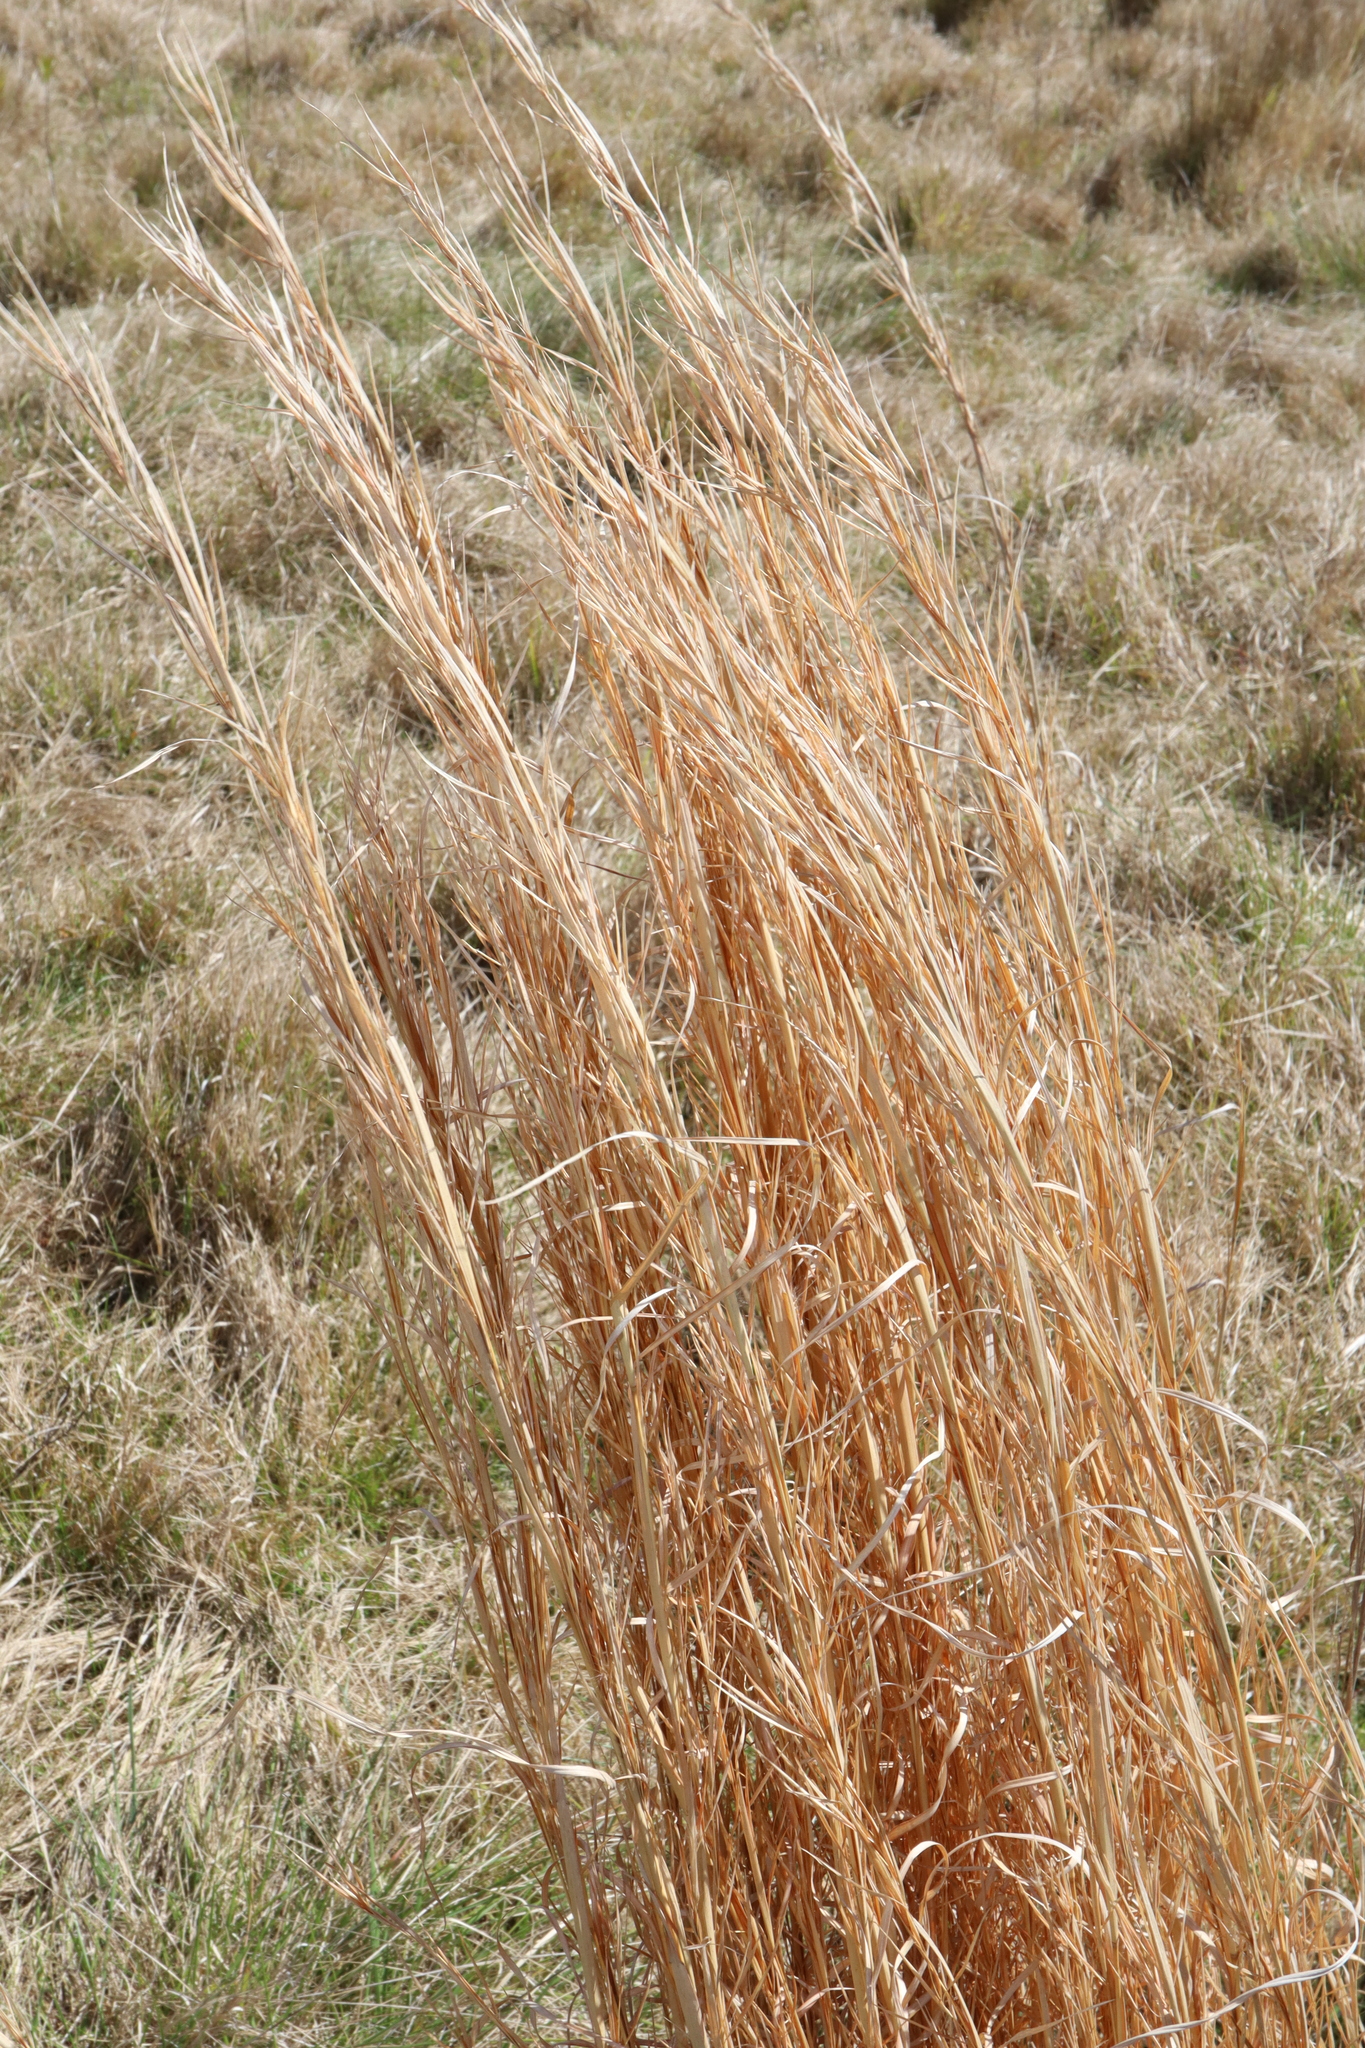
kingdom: Plantae
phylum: Tracheophyta
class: Liliopsida
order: Poales
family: Poaceae
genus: Andropogon
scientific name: Andropogon virginicus
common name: Broomsedge bluestem
